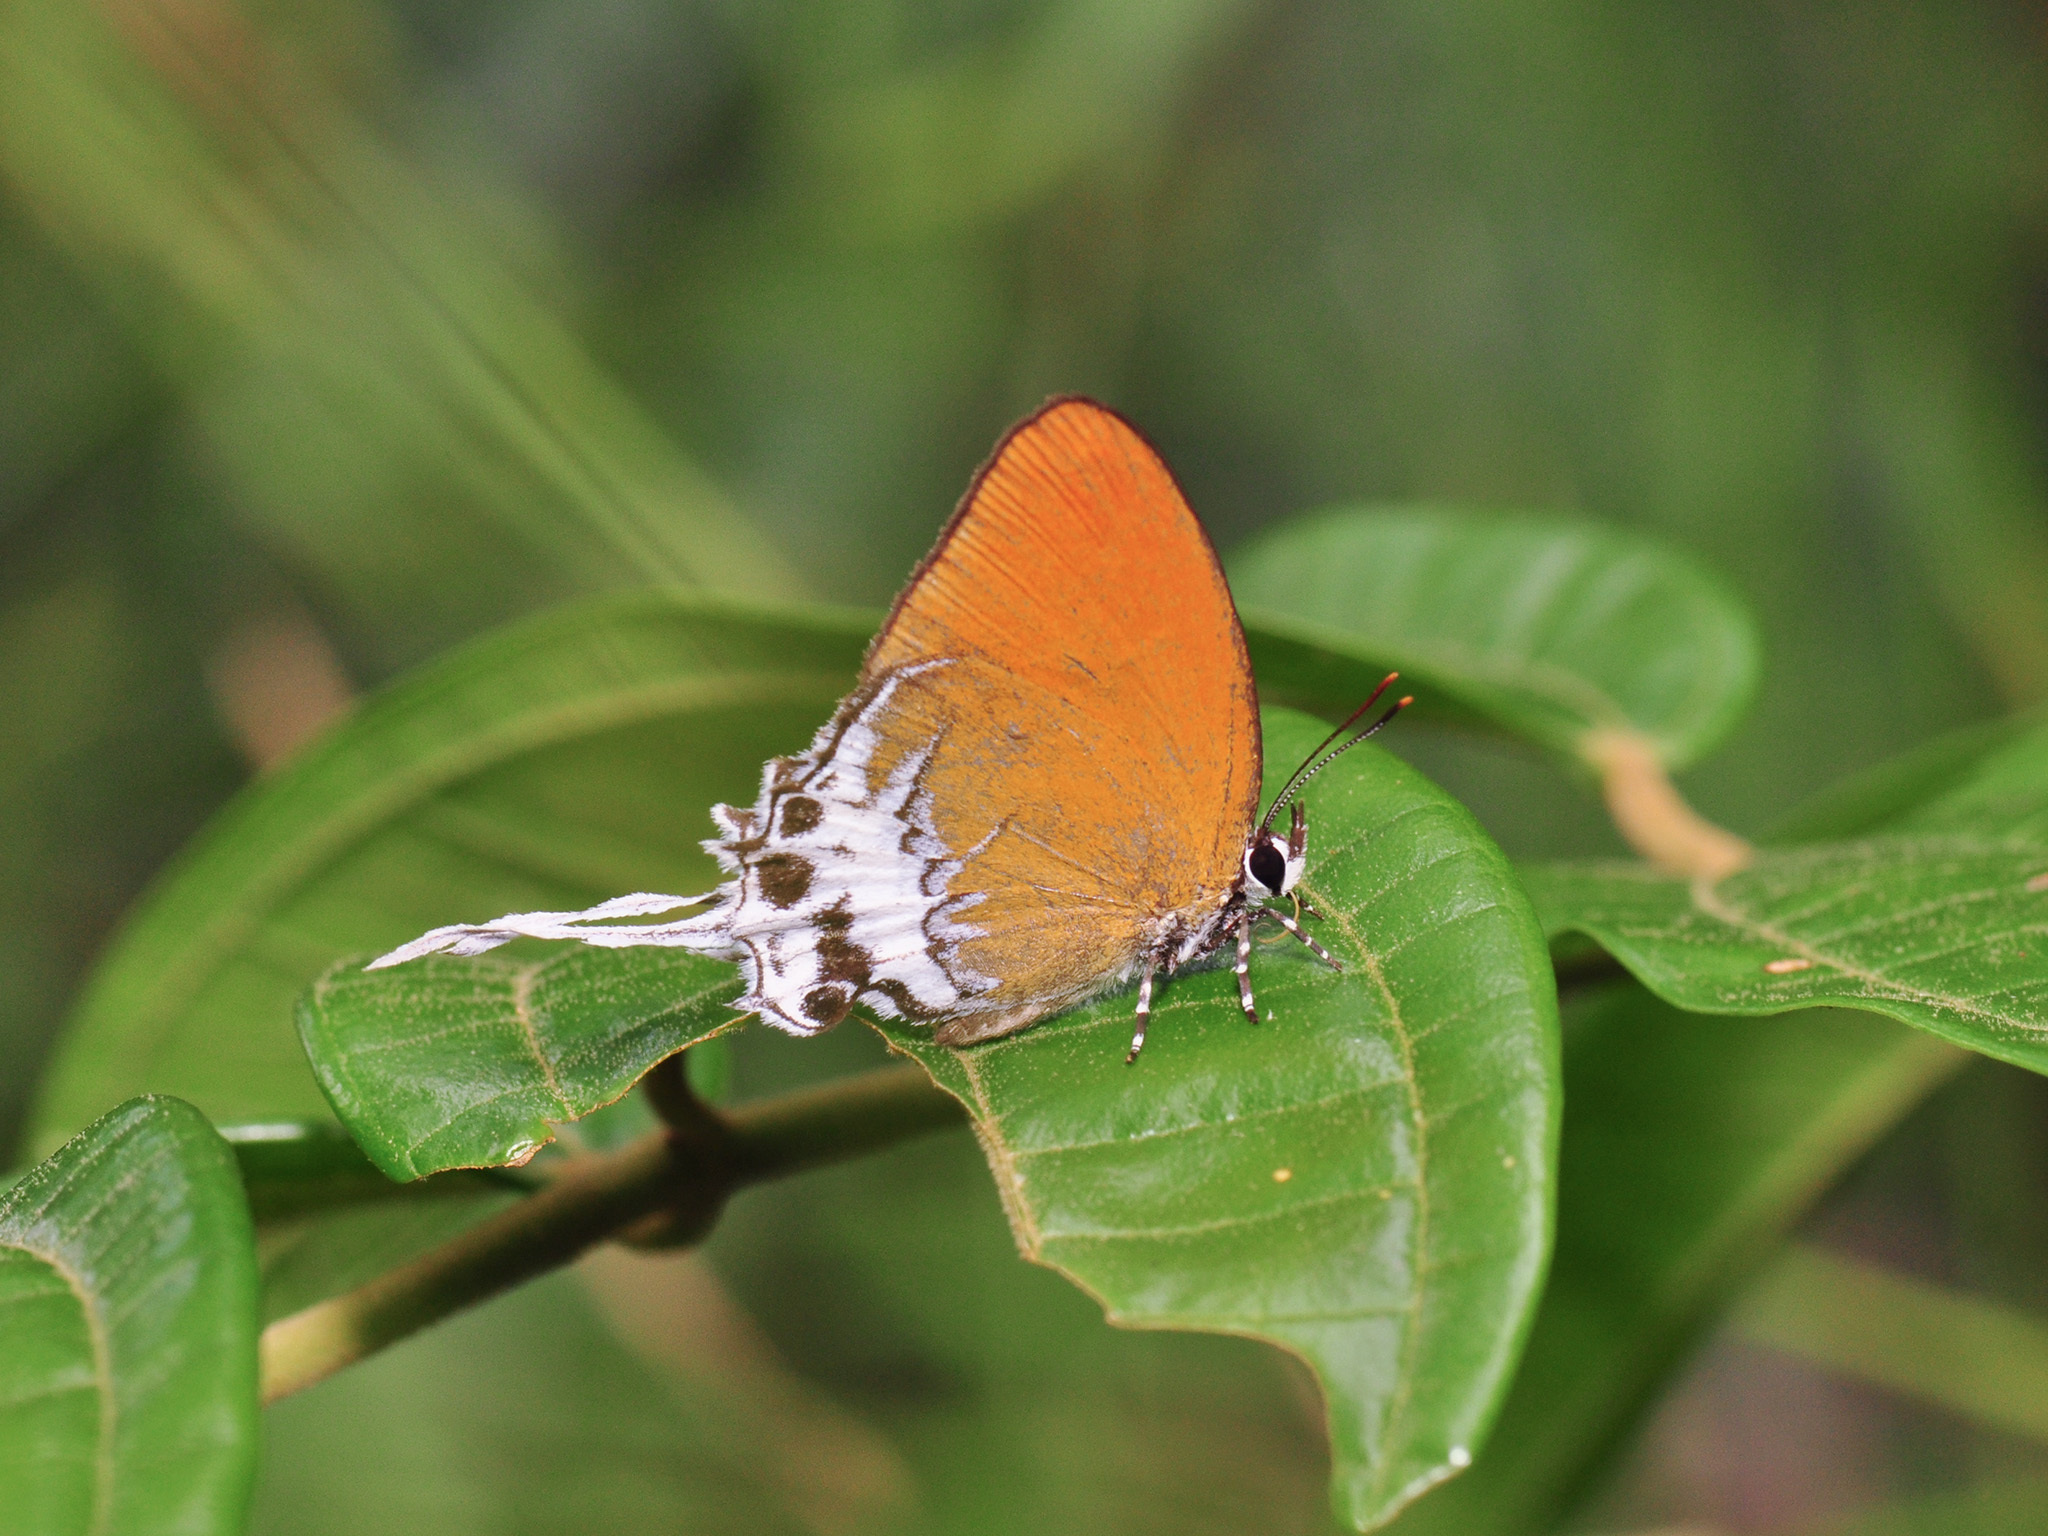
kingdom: Animalia
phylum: Arthropoda
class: Insecta
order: Lepidoptera
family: Lycaenidae
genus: Eooxylides
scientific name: Eooxylides tharis
